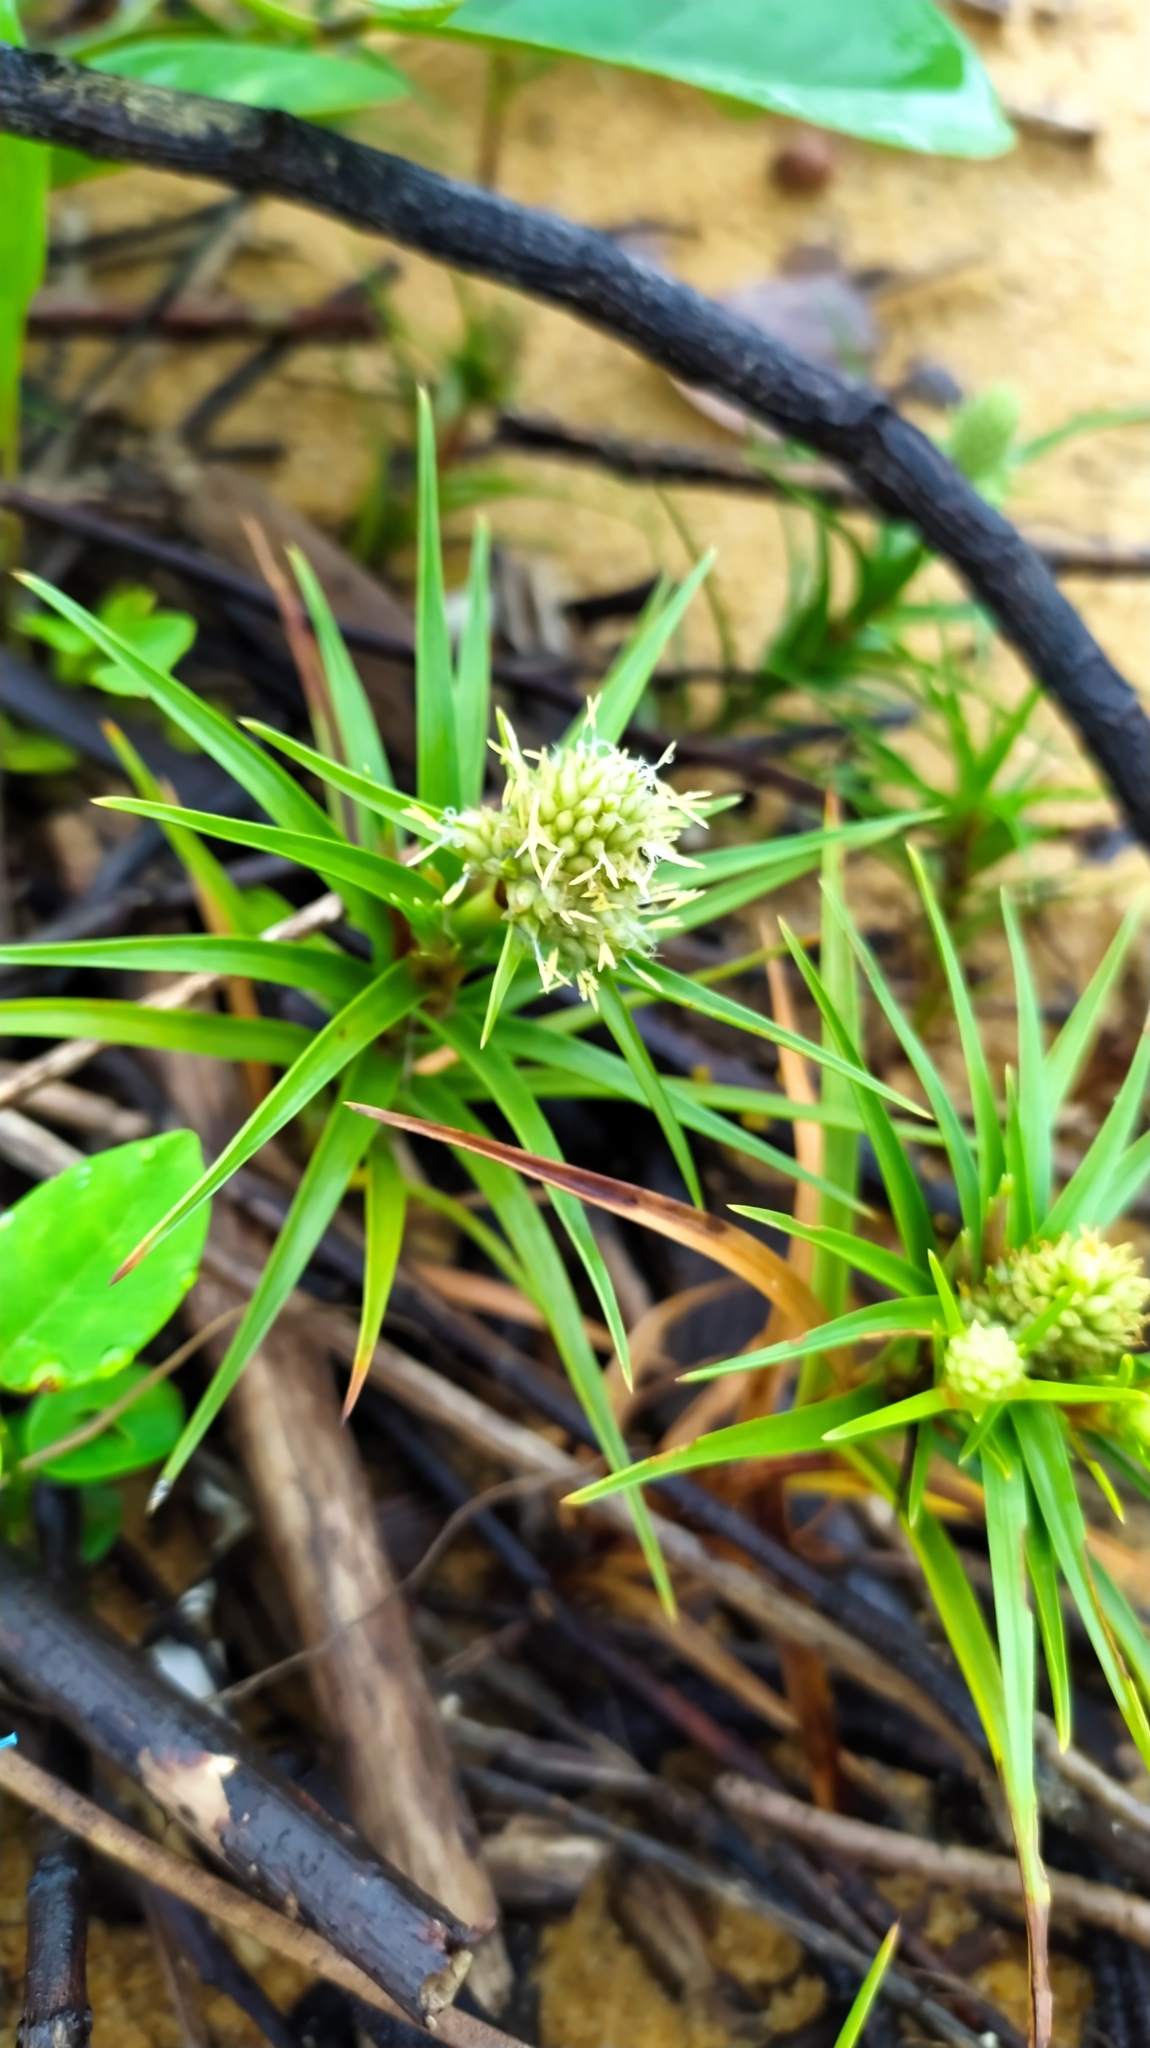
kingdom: Plantae
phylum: Tracheophyta
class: Liliopsida
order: Poales
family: Cyperaceae
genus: Cyperus
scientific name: Cyperus pedunculatus
